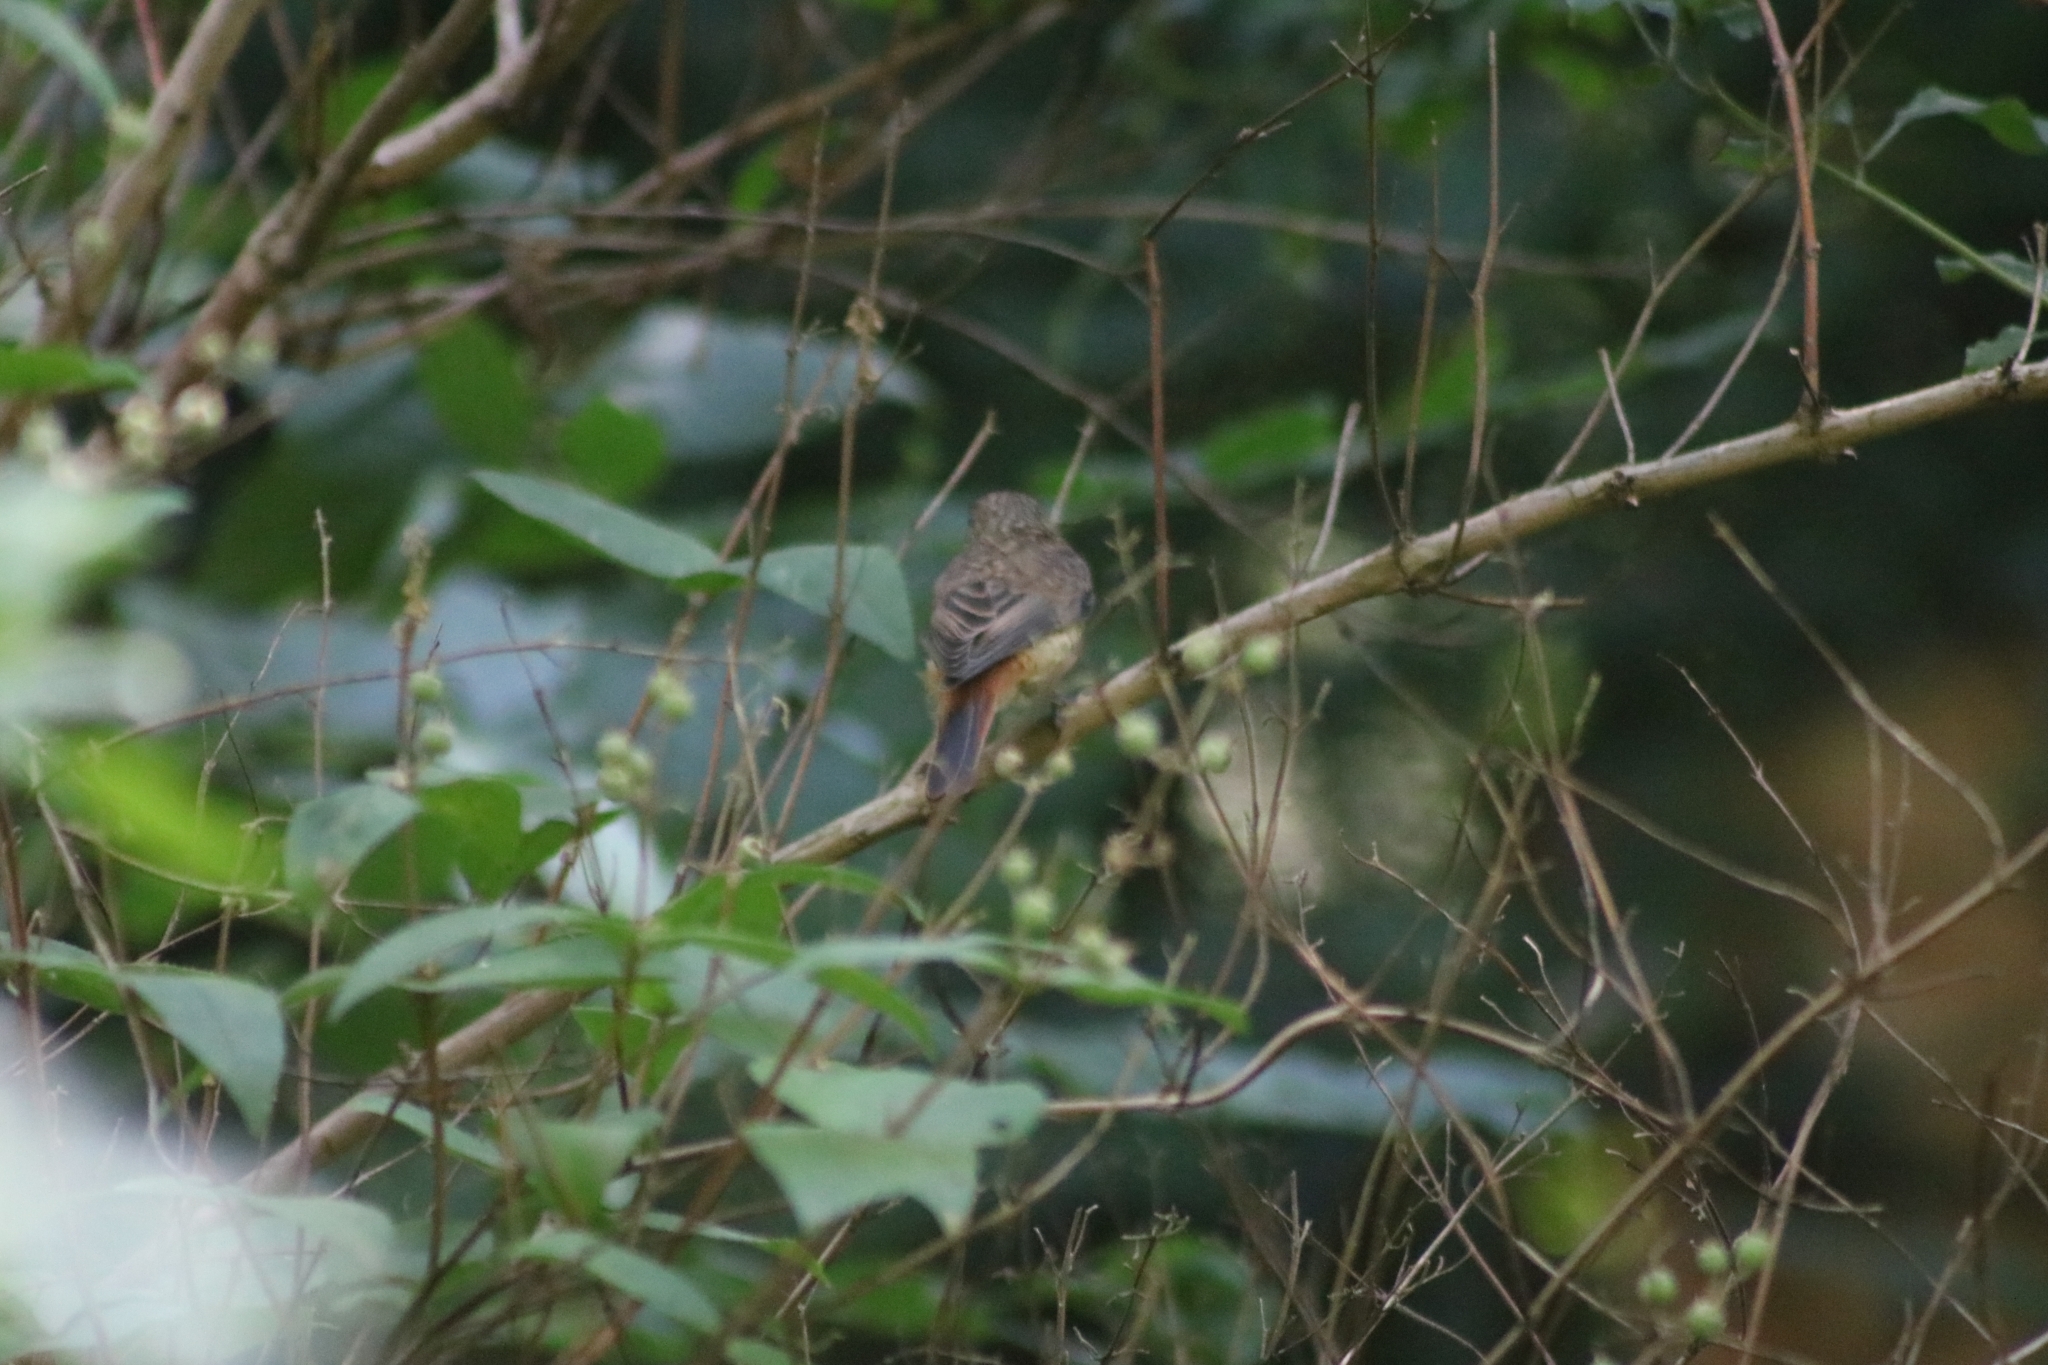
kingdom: Animalia
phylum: Chordata
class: Aves
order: Passeriformes
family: Muscicapidae
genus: Phoenicurus
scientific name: Phoenicurus phoenicurus
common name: Common redstart
